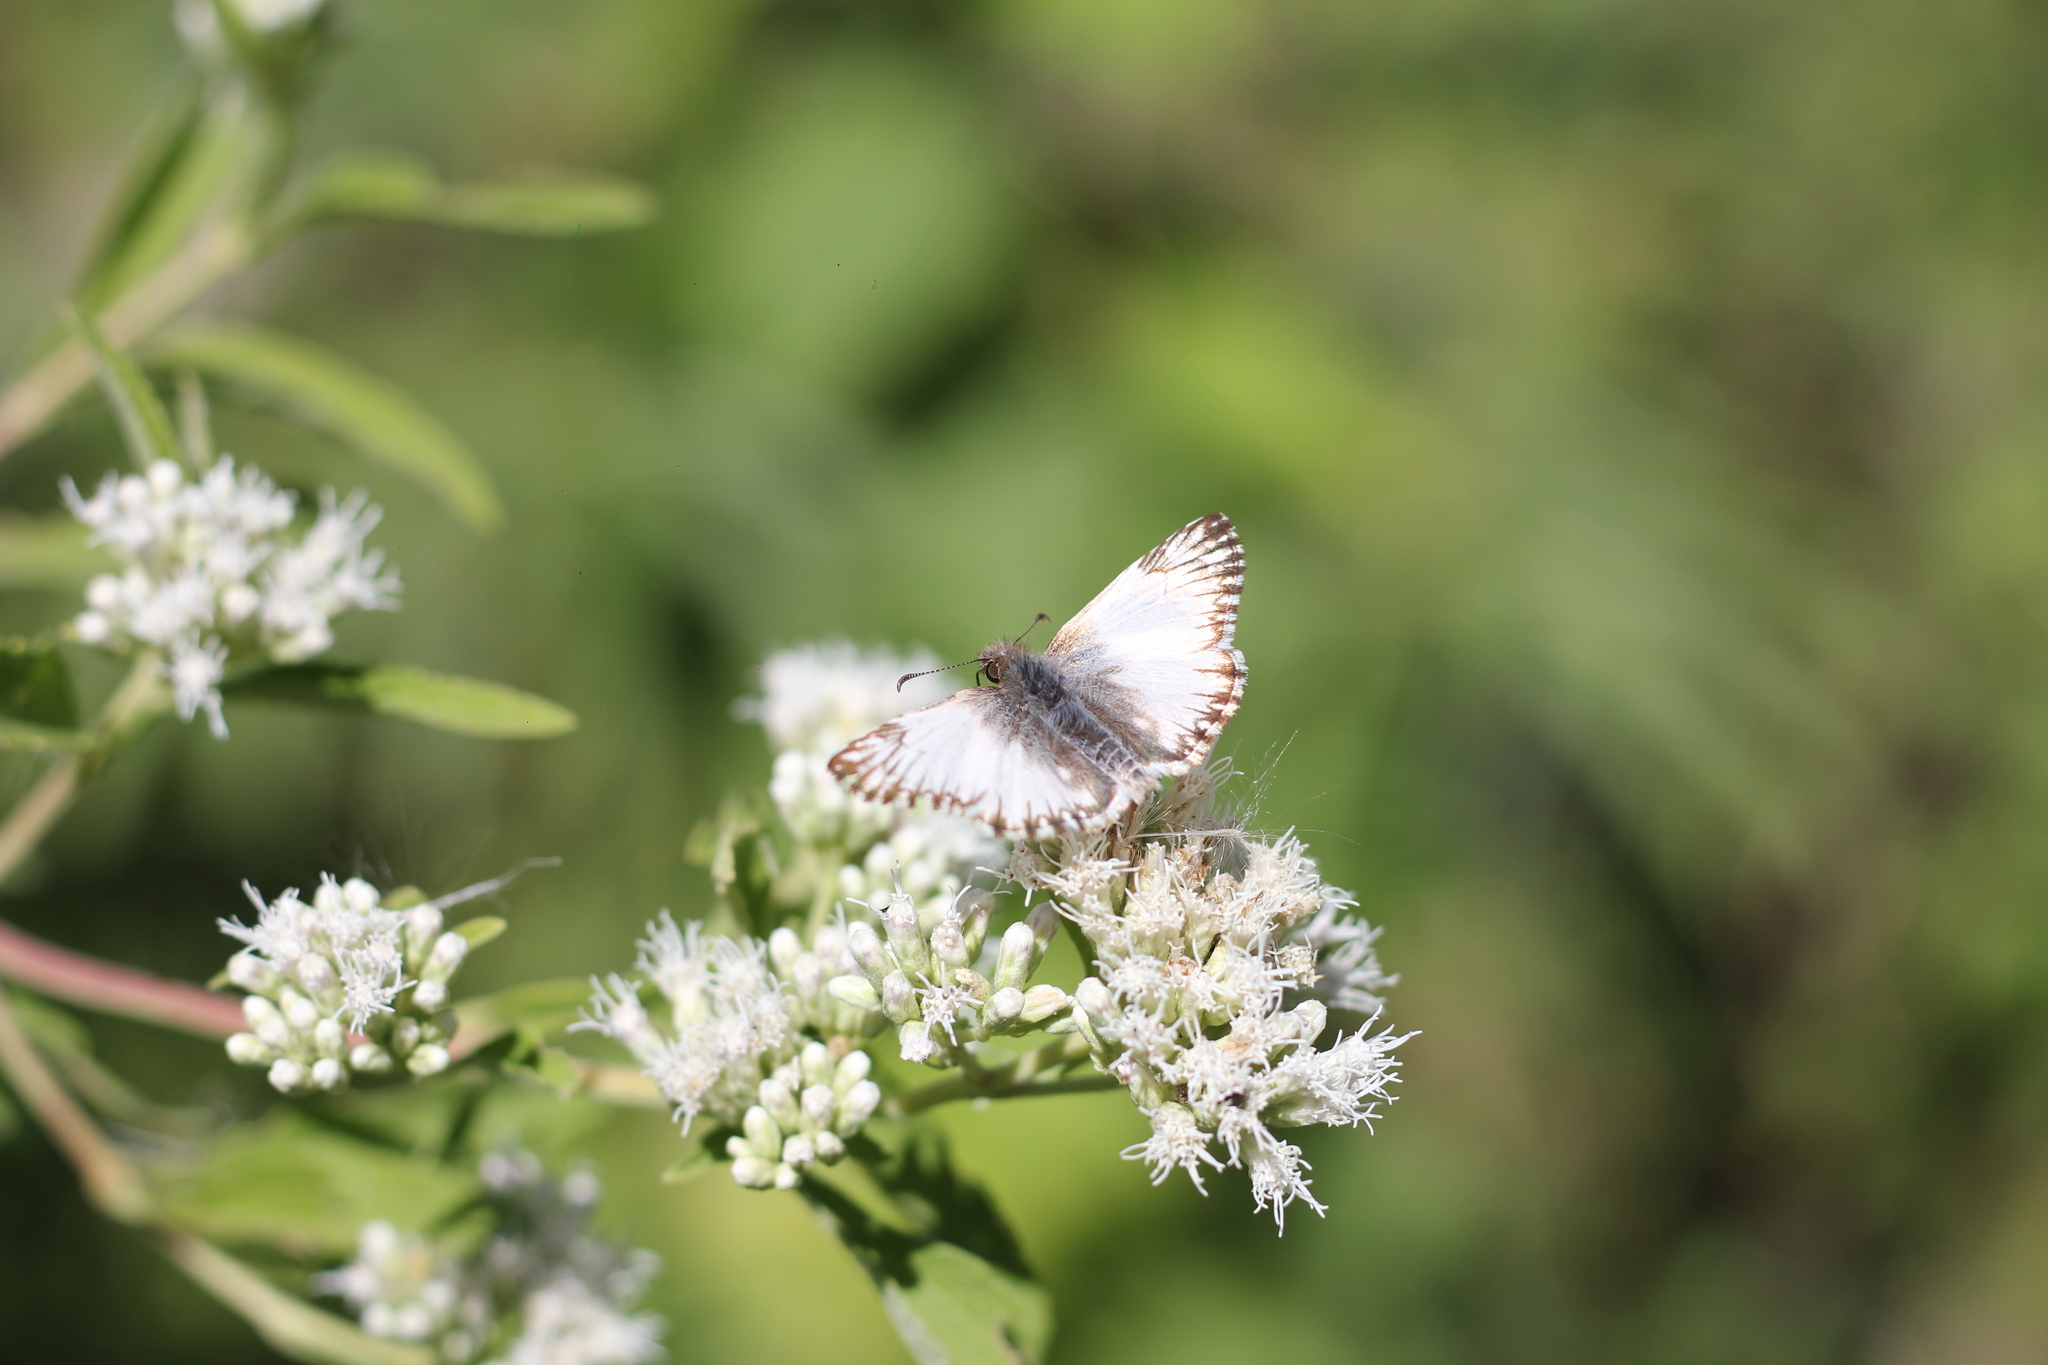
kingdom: Animalia
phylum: Arthropoda
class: Insecta
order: Lepidoptera
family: Hesperiidae
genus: Heliopetes
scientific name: Heliopetes omrina
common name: Stained white-skipper
